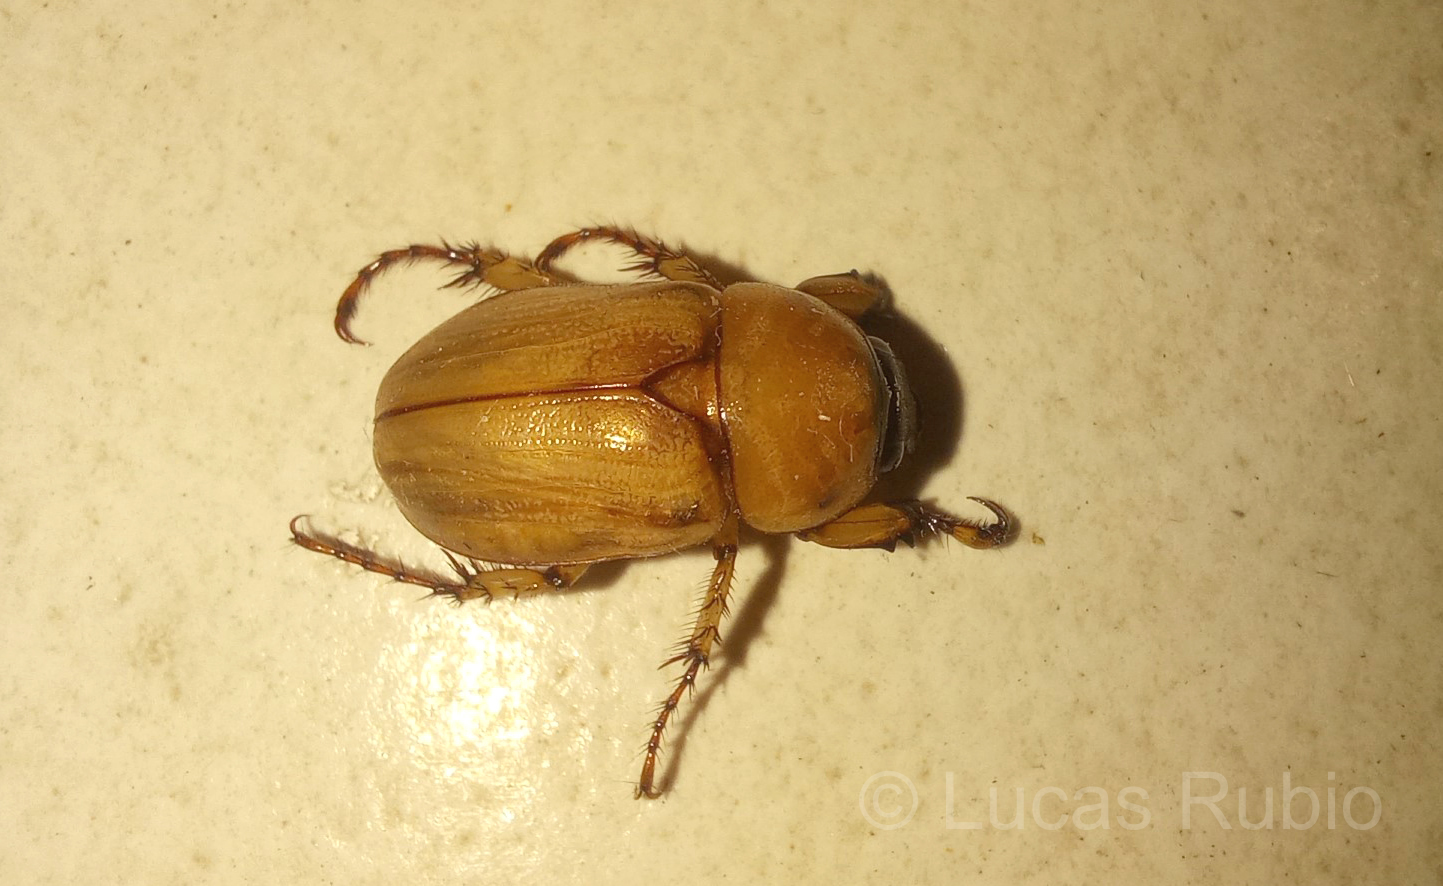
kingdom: Animalia
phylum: Arthropoda
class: Insecta
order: Coleoptera
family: Scarabaeidae
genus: Cyclocephala
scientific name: Cyclocephala putrida
